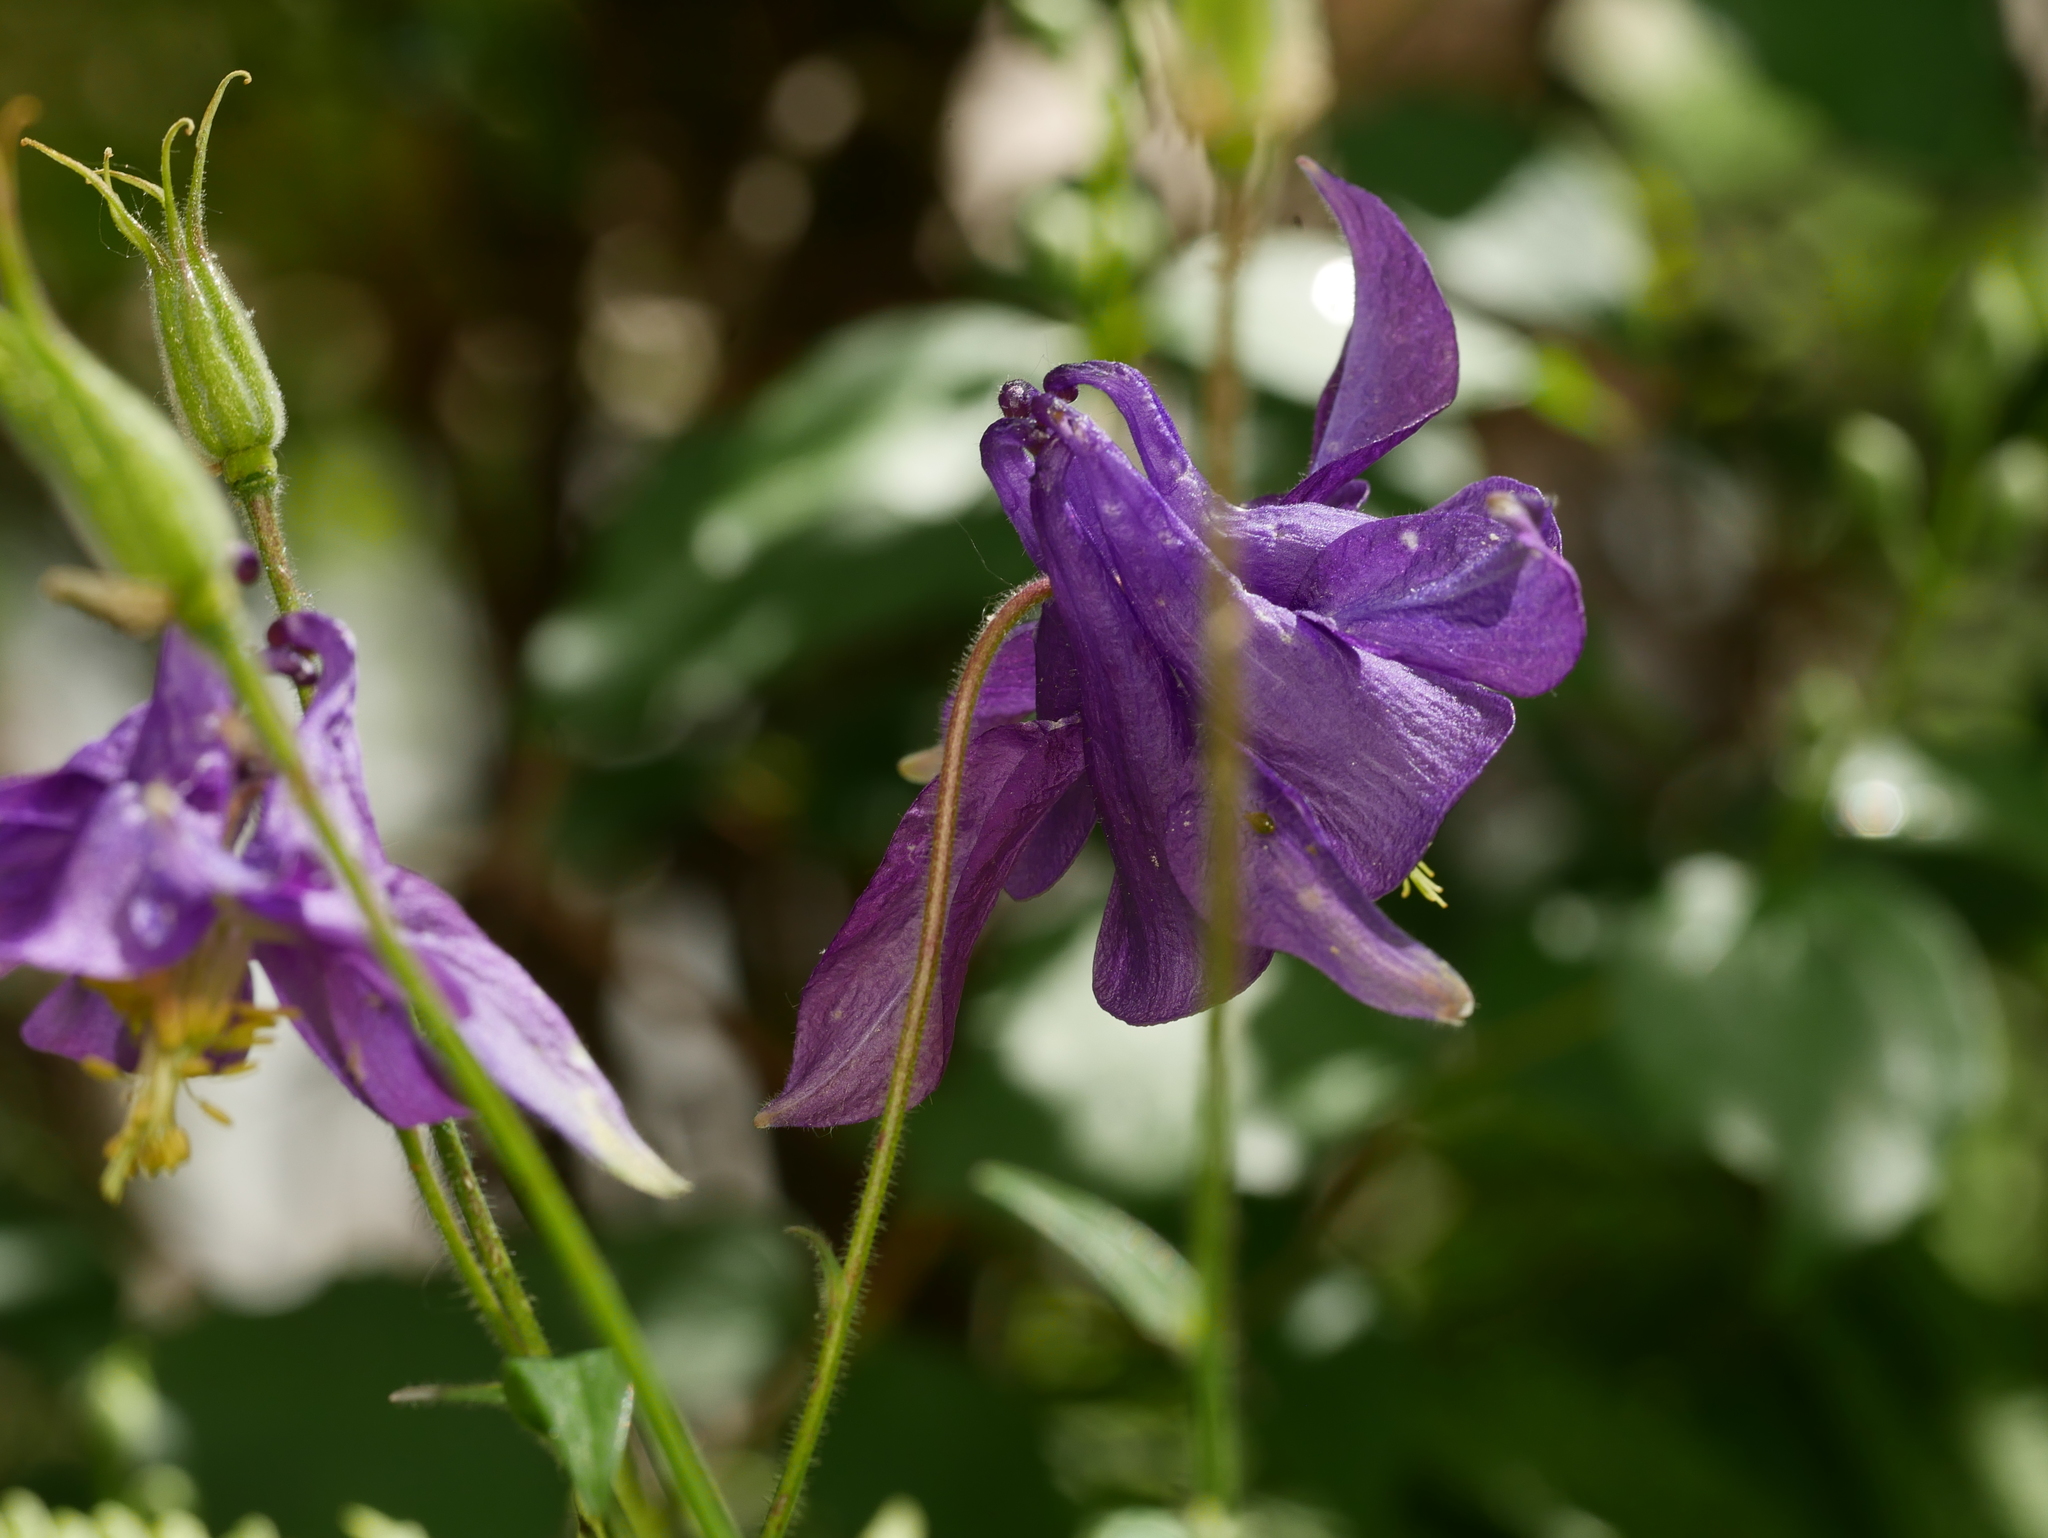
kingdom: Plantae
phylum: Tracheophyta
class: Magnoliopsida
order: Ranunculales
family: Ranunculaceae
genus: Aquilegia
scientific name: Aquilegia vulgaris
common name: Columbine
